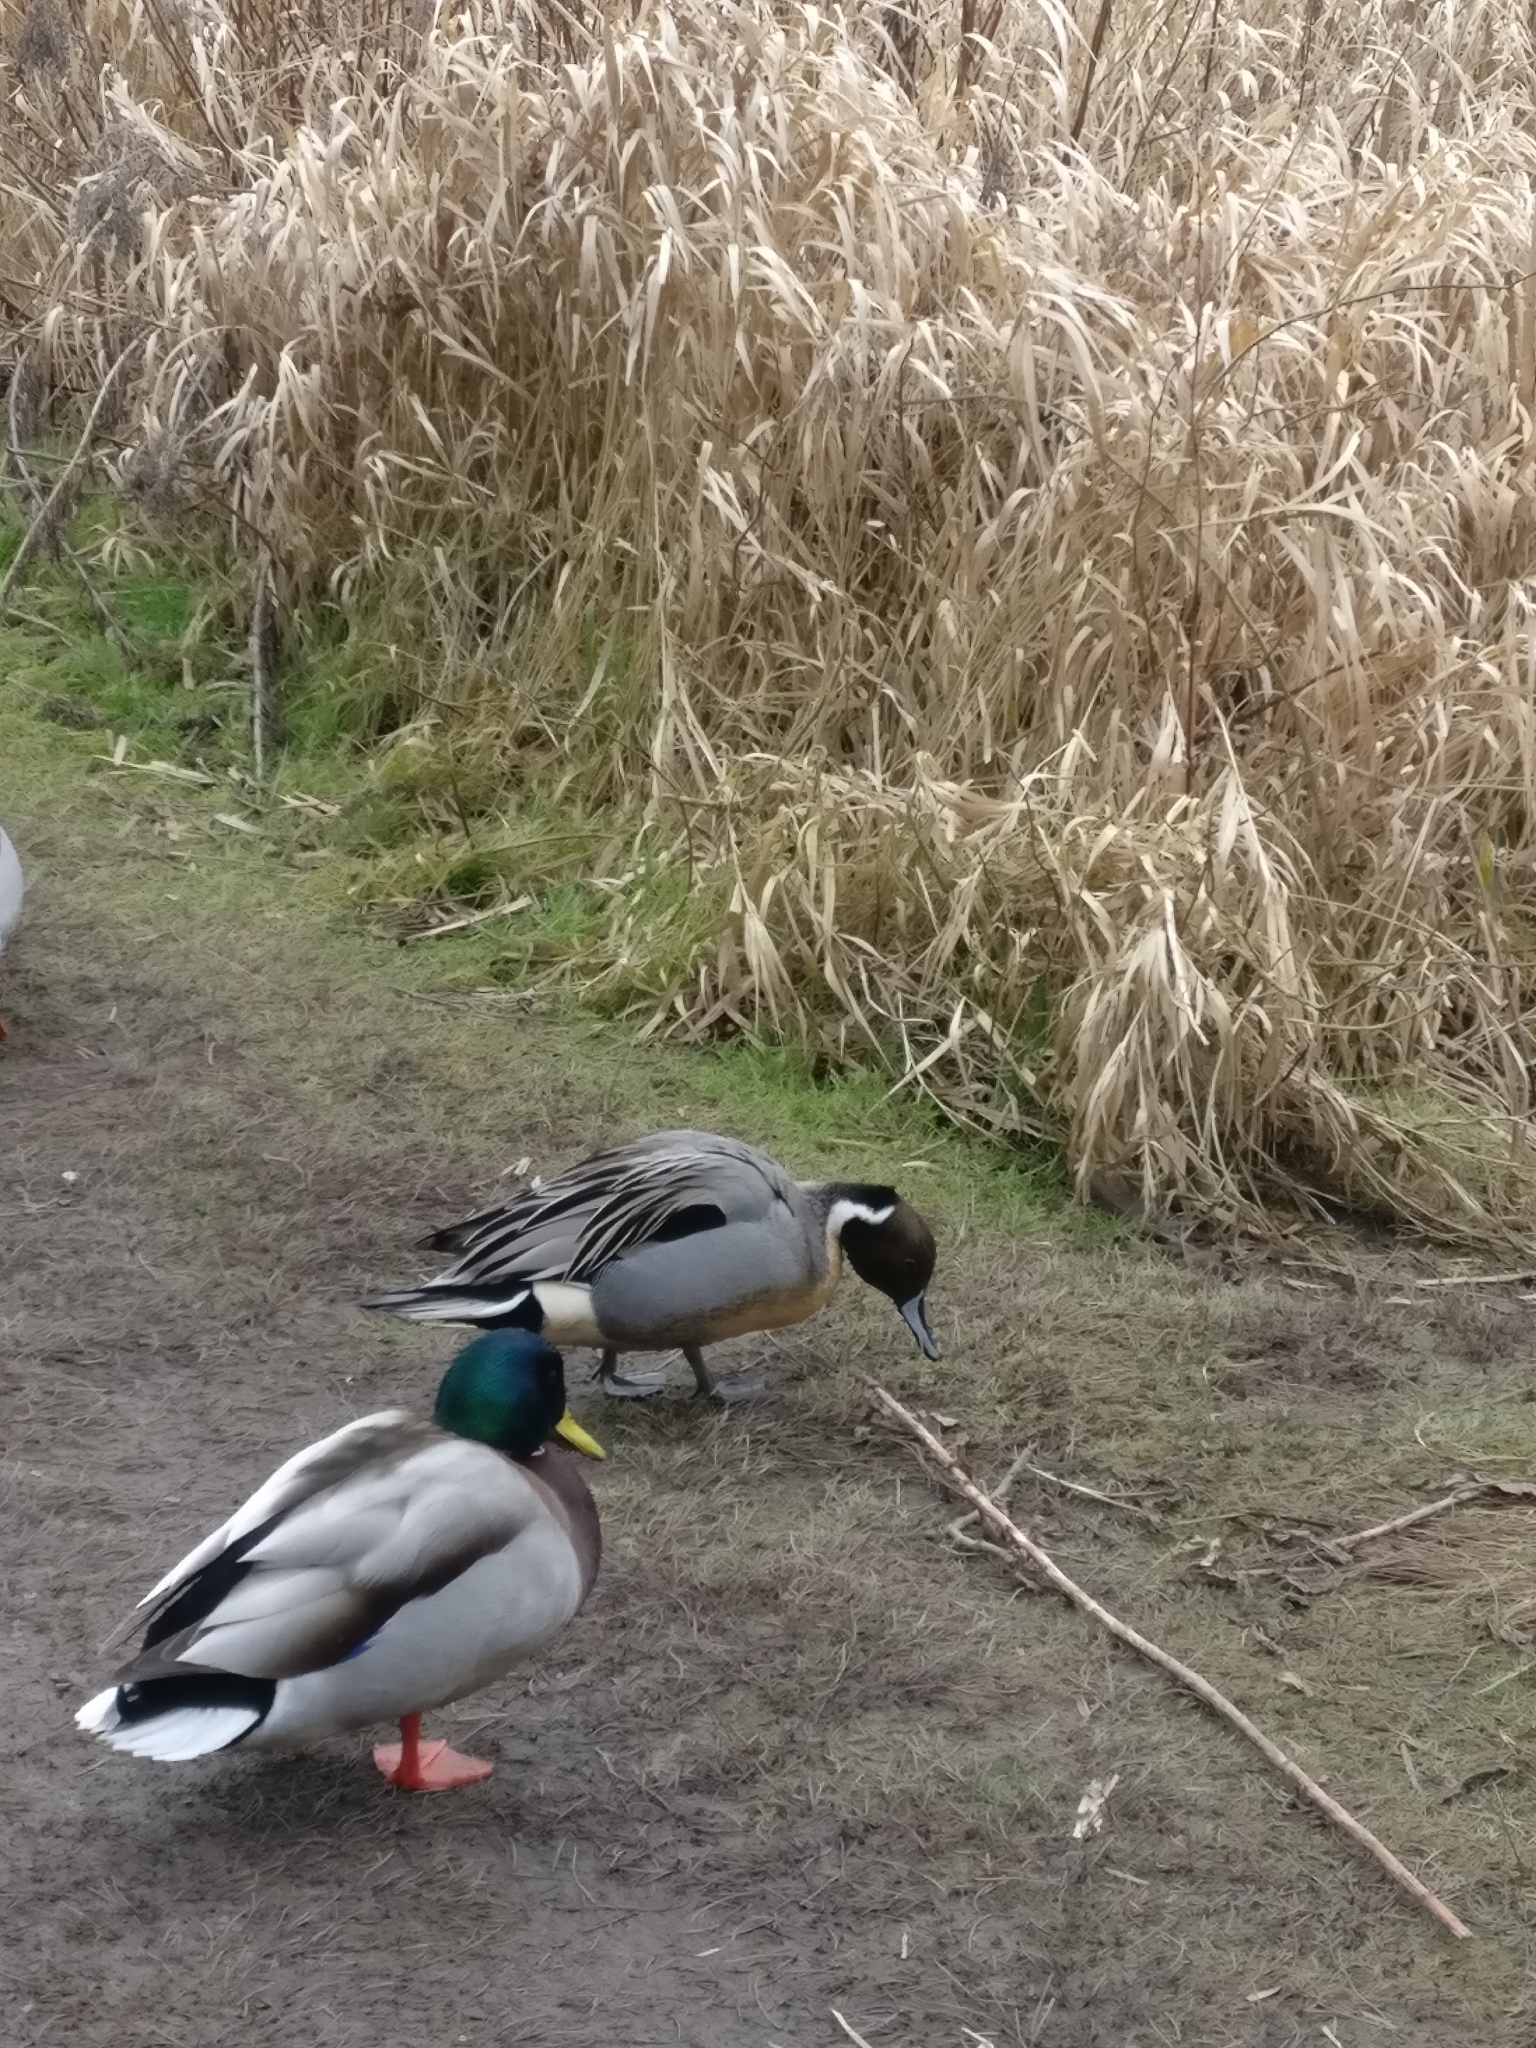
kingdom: Animalia
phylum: Chordata
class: Aves
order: Anseriformes
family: Anatidae
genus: Anas
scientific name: Anas acuta
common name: Northern pintail
